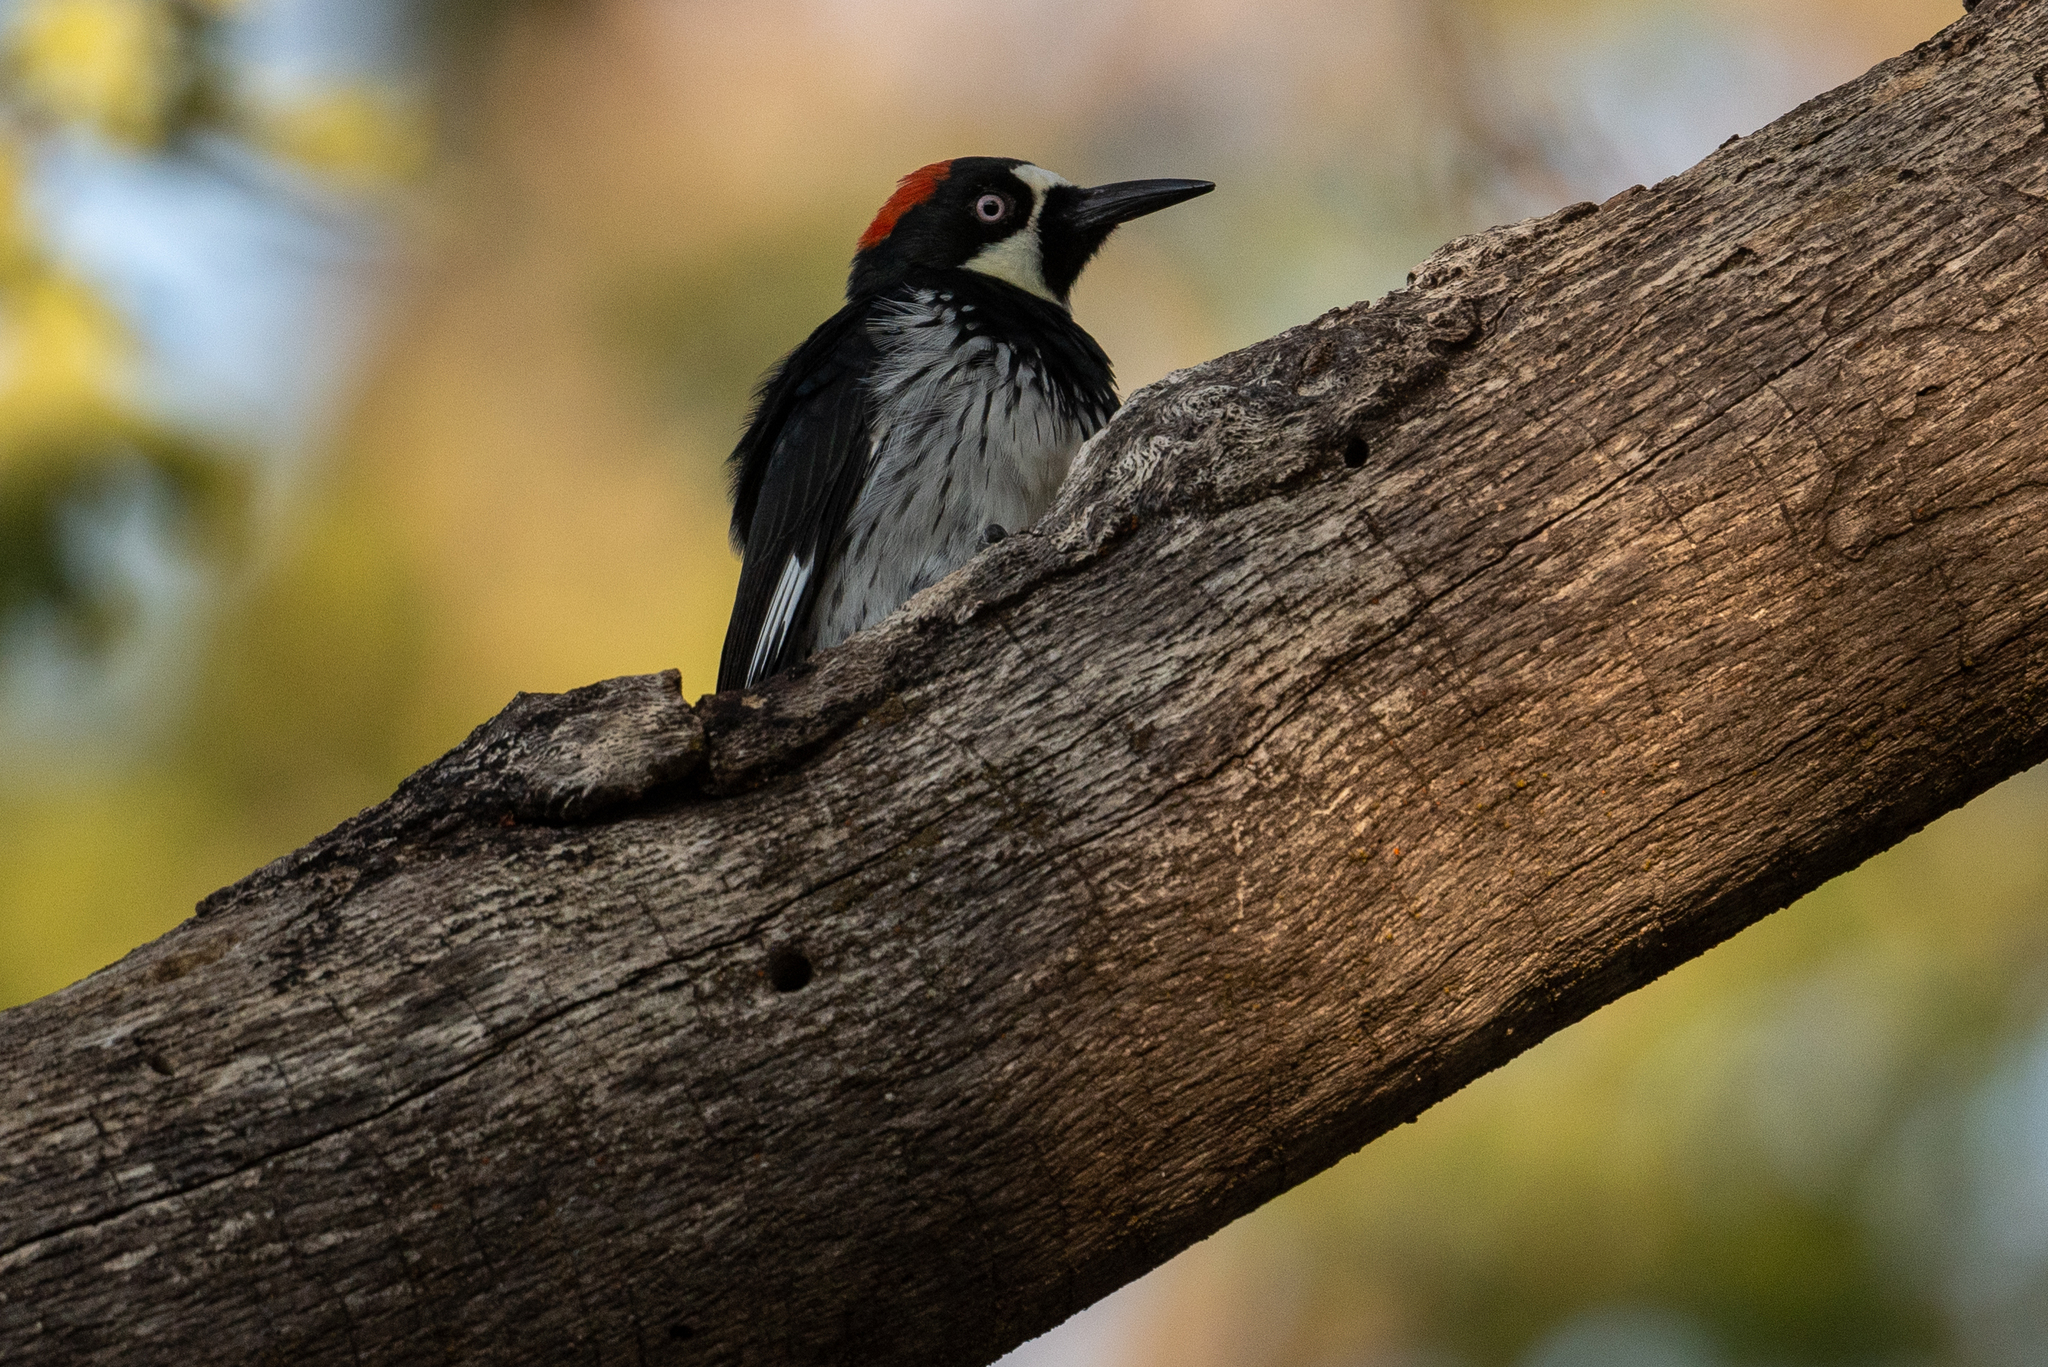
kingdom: Animalia
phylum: Chordata
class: Aves
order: Piciformes
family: Picidae
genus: Melanerpes
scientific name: Melanerpes formicivorus
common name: Acorn woodpecker
